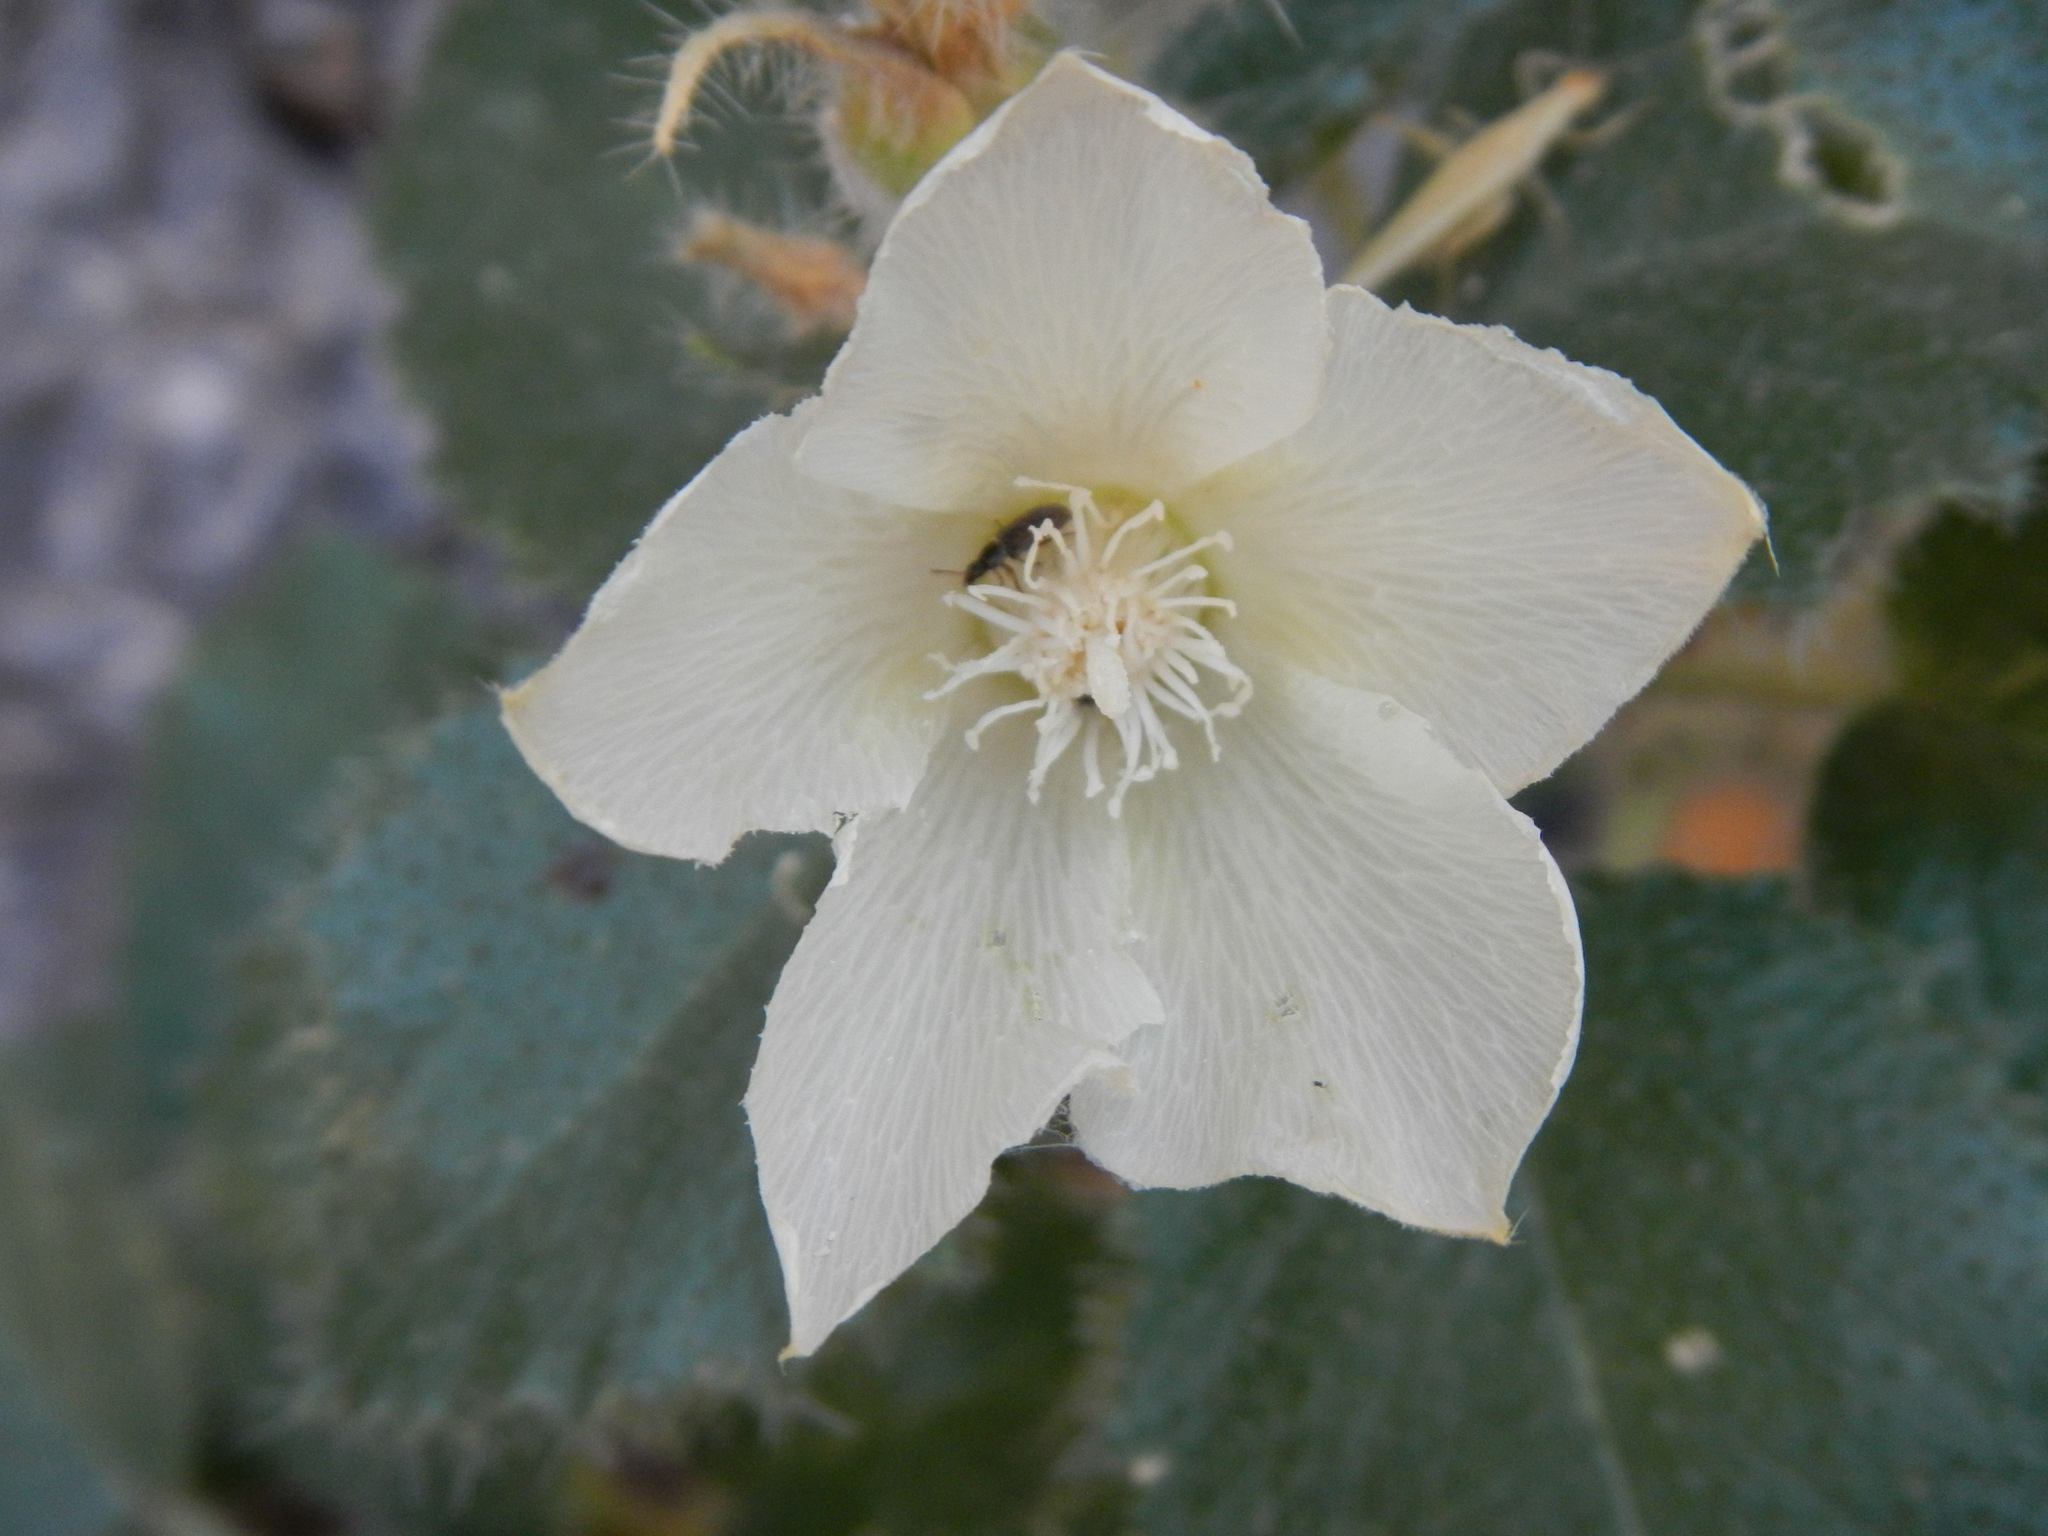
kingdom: Plantae
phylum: Tracheophyta
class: Magnoliopsida
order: Cornales
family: Loasaceae
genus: Eucnide
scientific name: Eucnide urens
